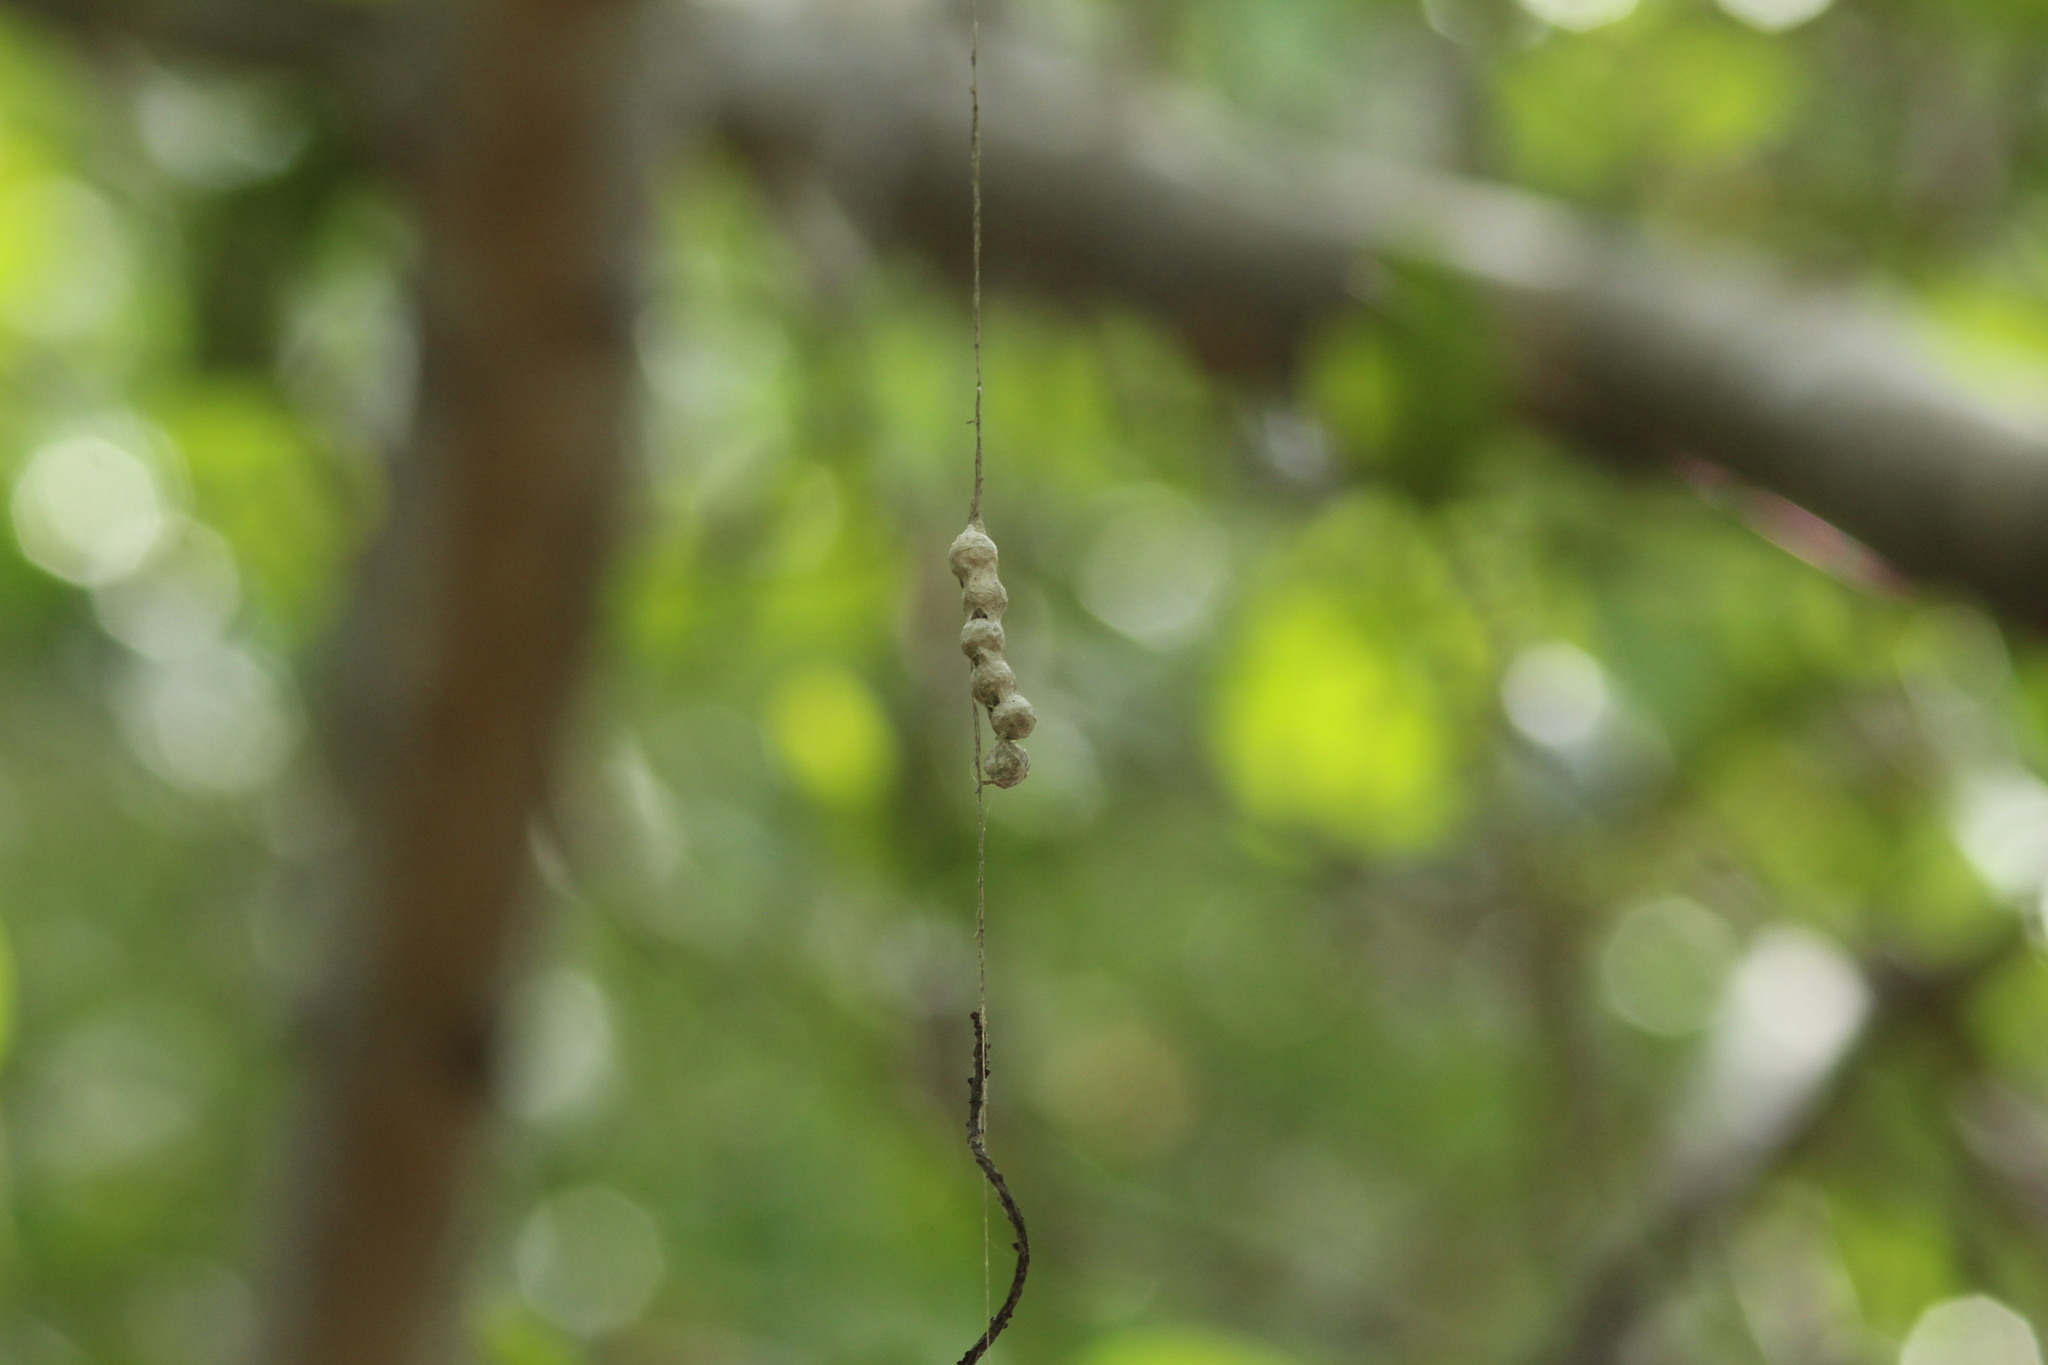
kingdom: Animalia
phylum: Arthropoda
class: Arachnida
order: Araneae
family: Araneidae
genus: Mecynogea
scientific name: Mecynogea lemniscata
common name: Orb weavers
